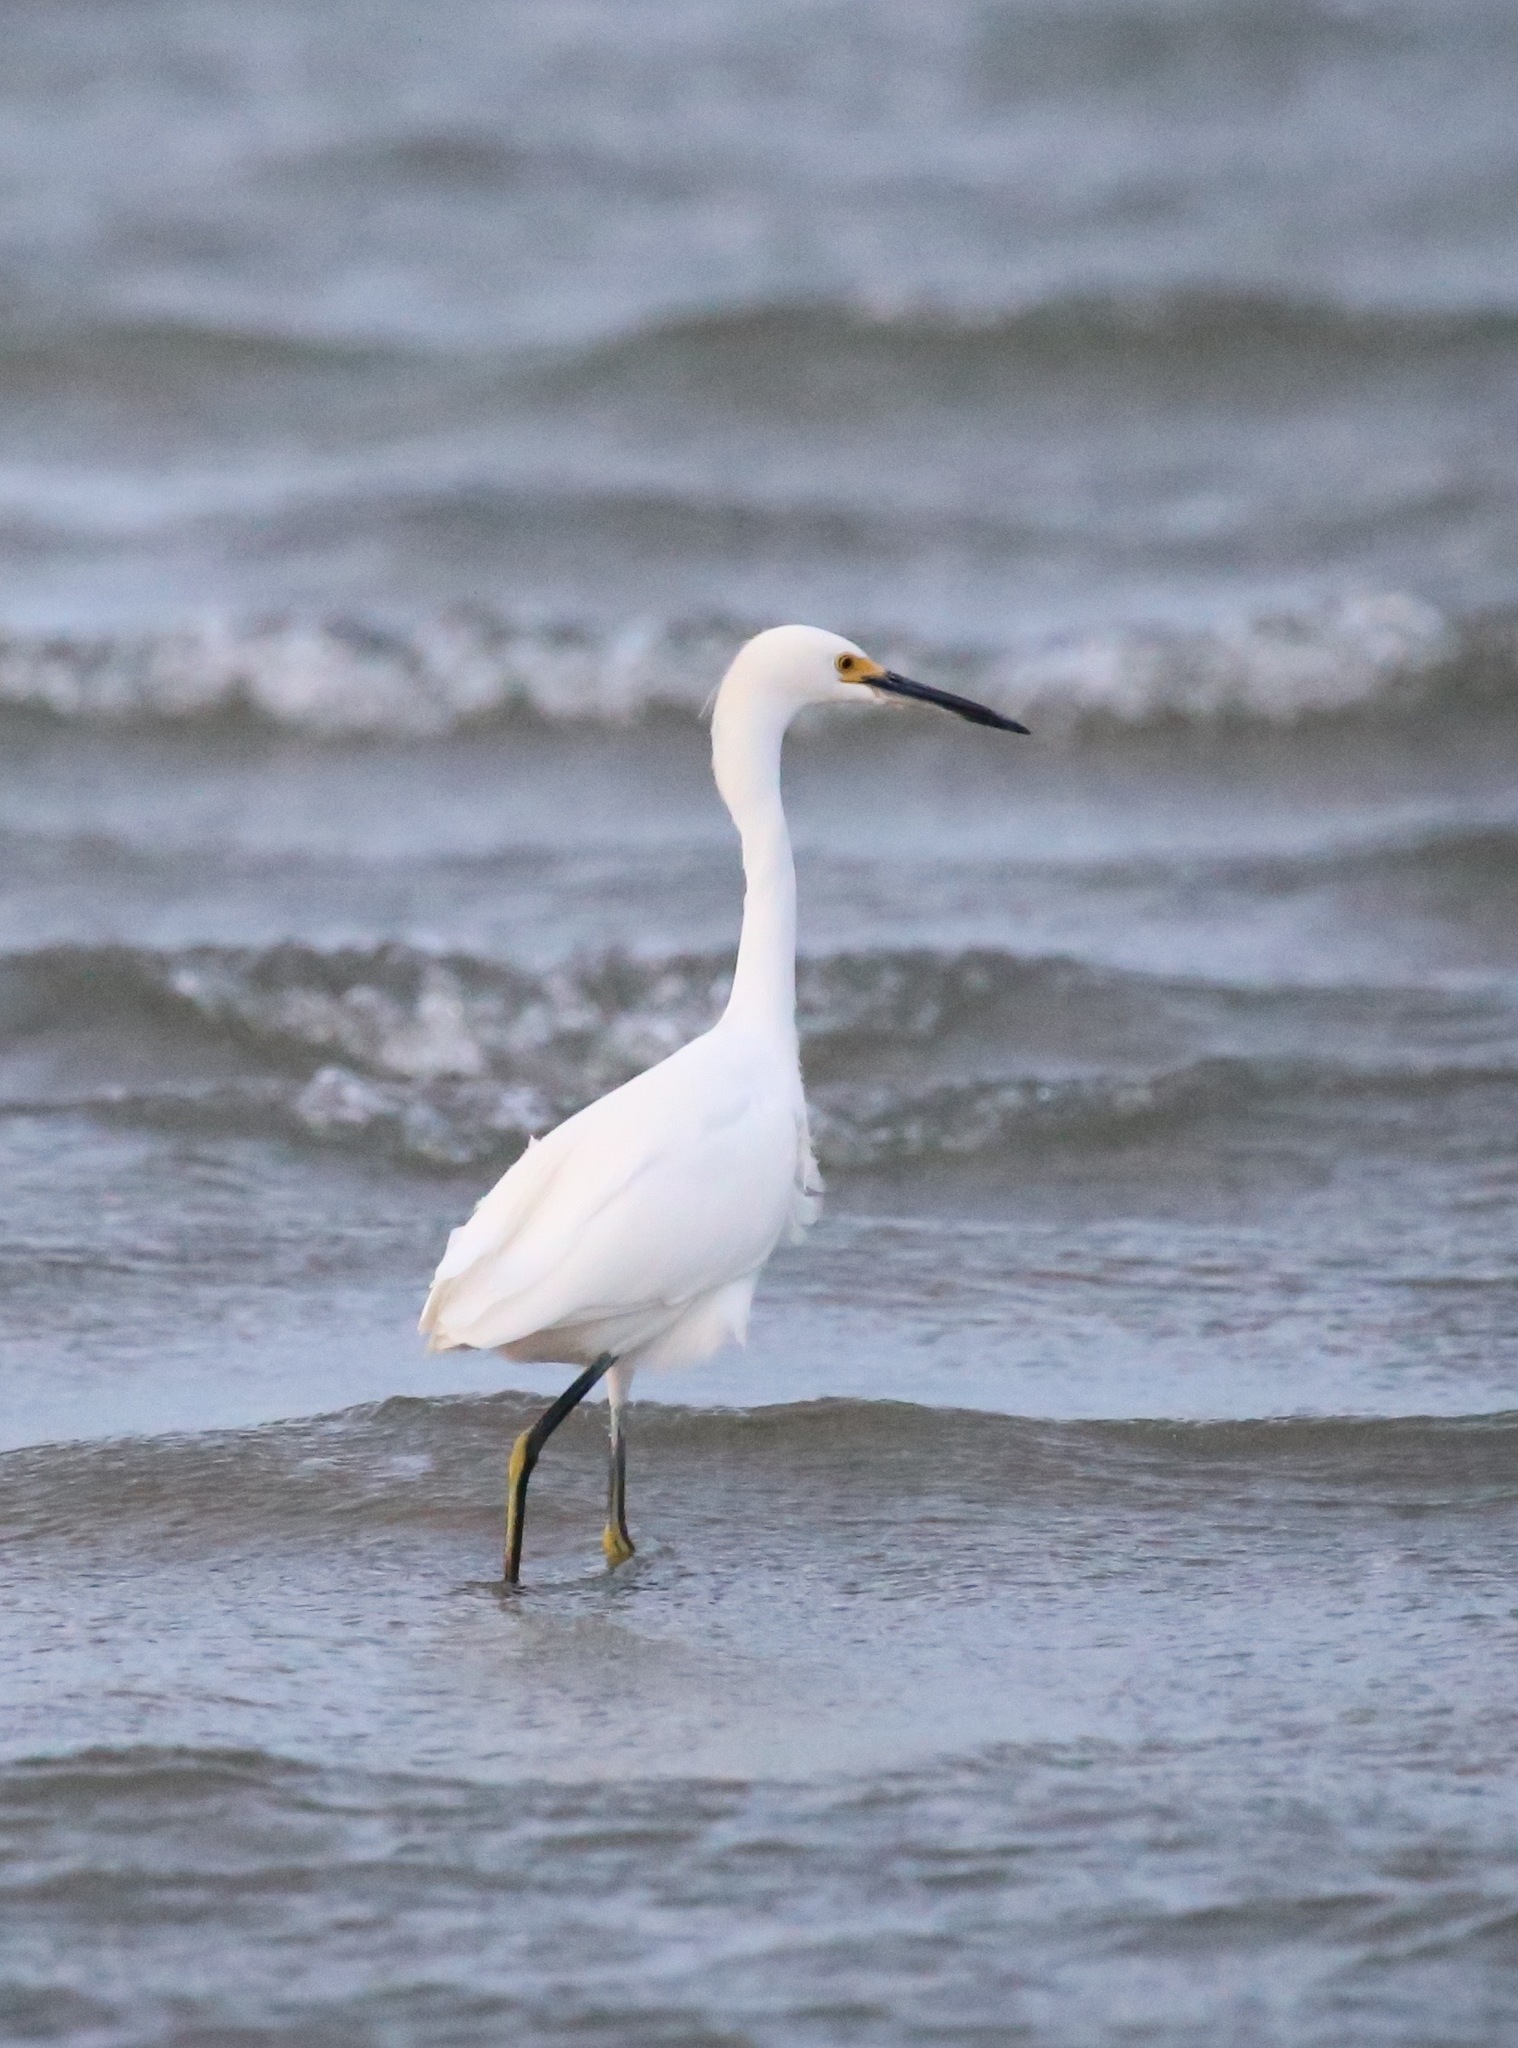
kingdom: Animalia
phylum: Chordata
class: Aves
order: Pelecaniformes
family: Ardeidae
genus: Egretta
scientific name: Egretta thula
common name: Snowy egret
